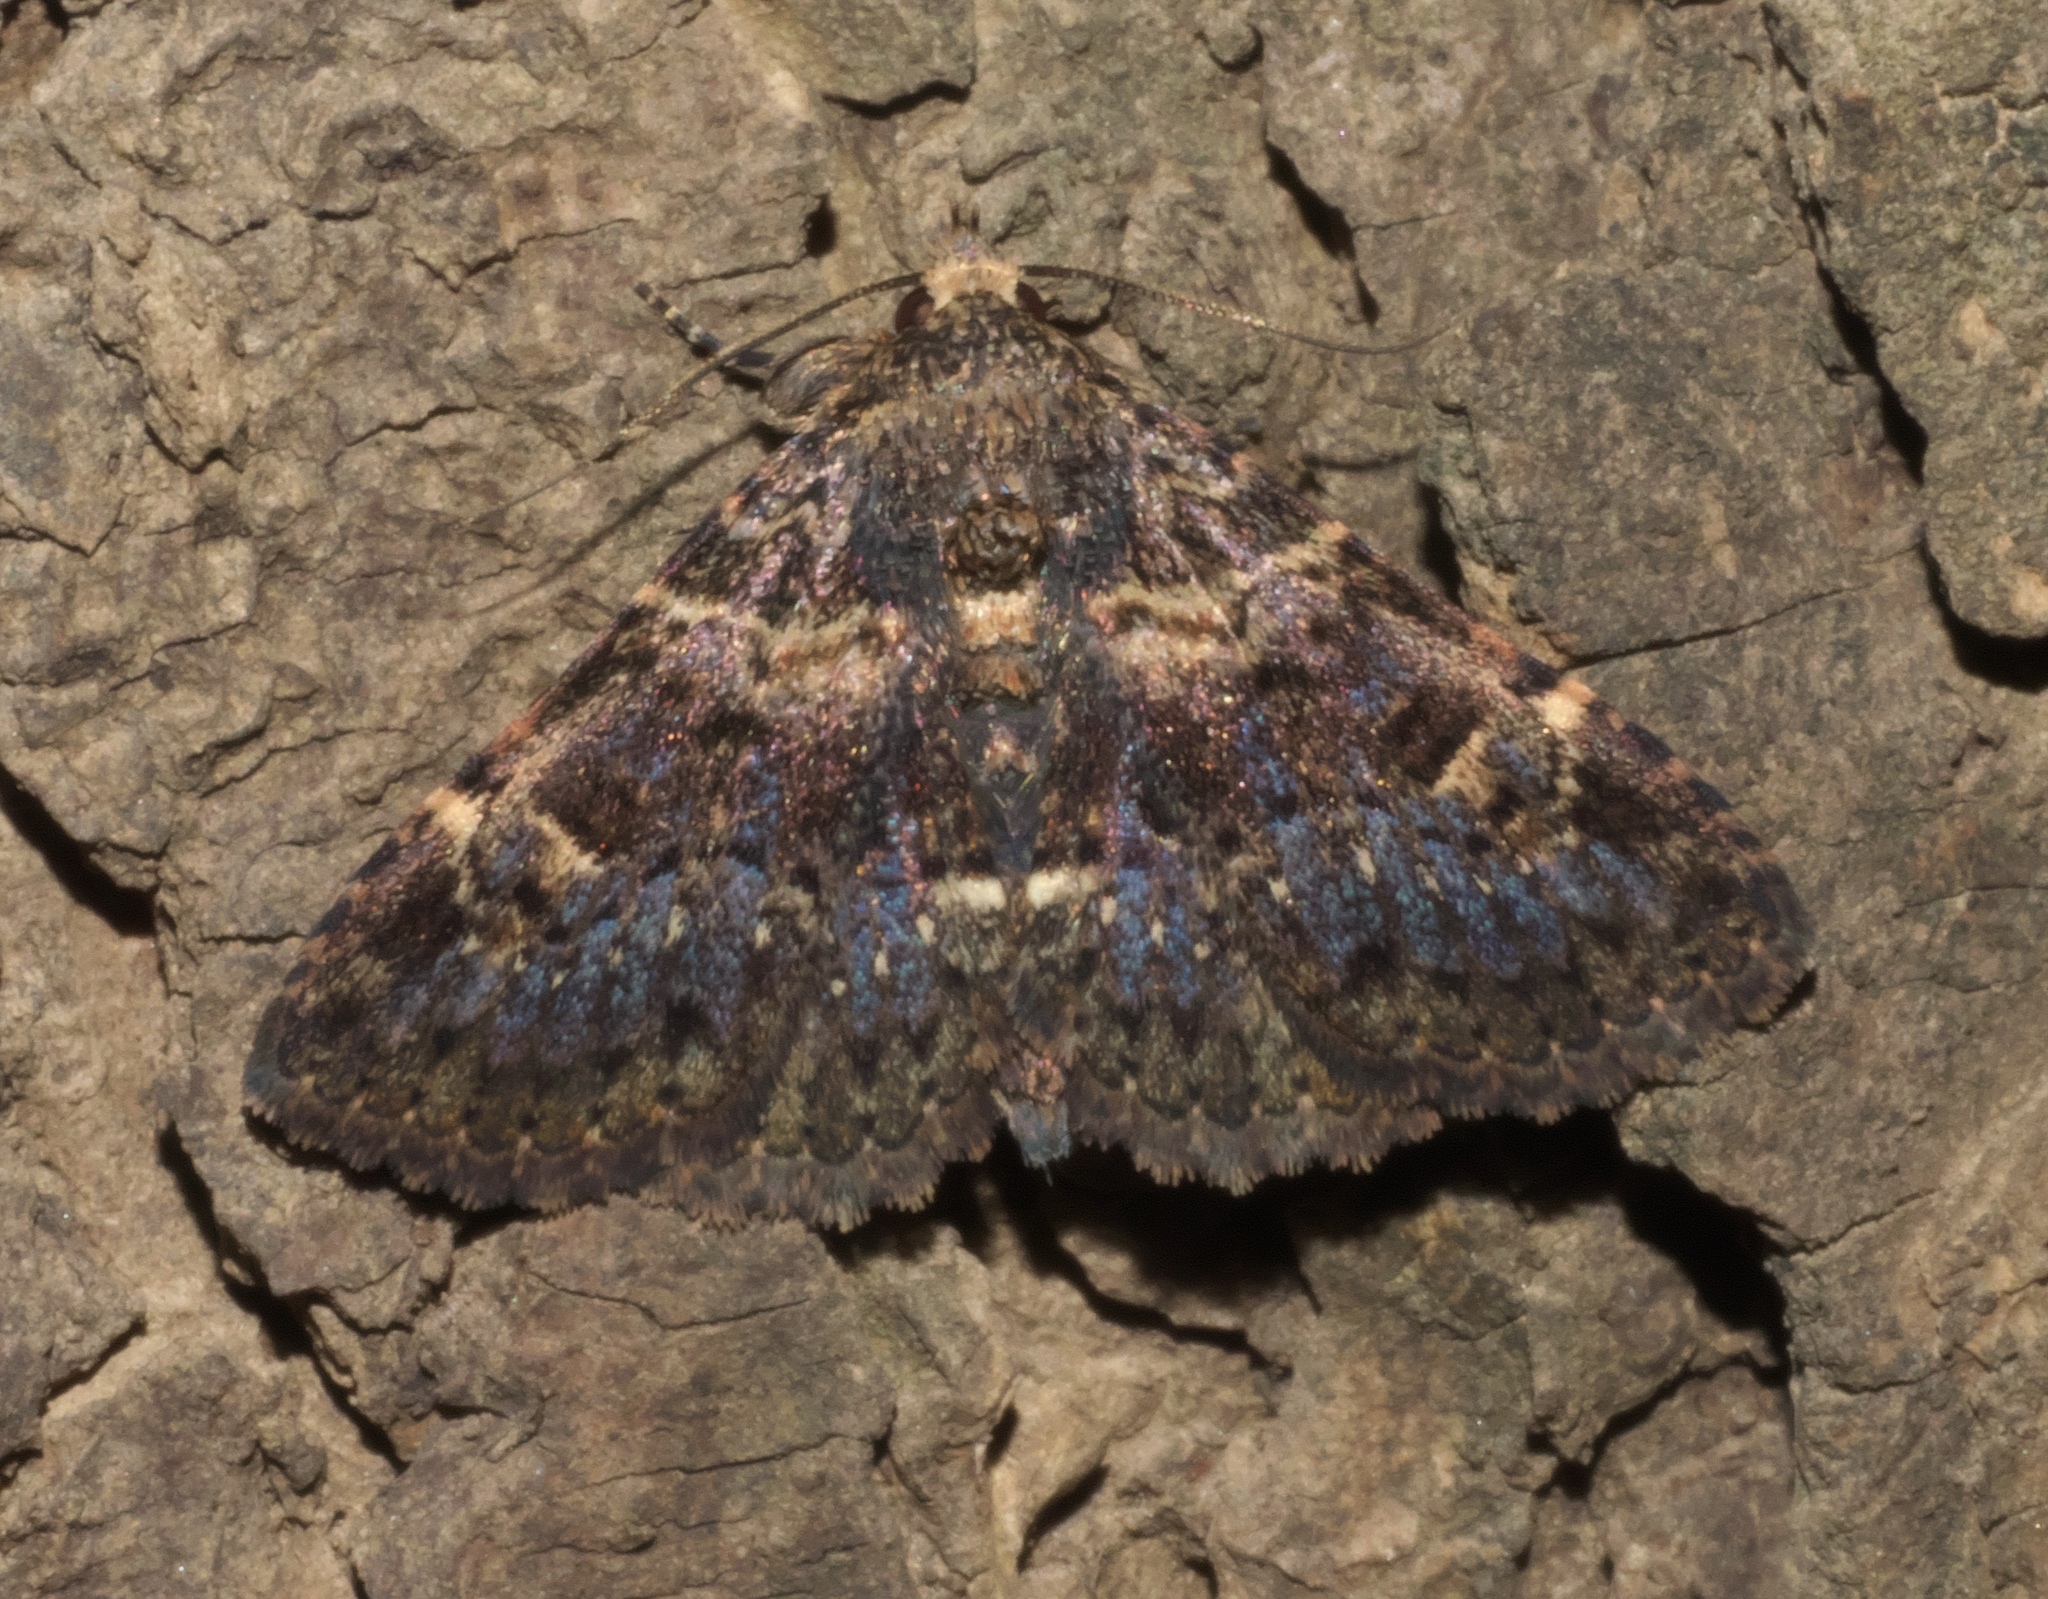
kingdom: Animalia
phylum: Arthropoda
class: Insecta
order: Lepidoptera
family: Erebidae
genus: Metalectra
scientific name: Metalectra discalis
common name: Common fungus moth
